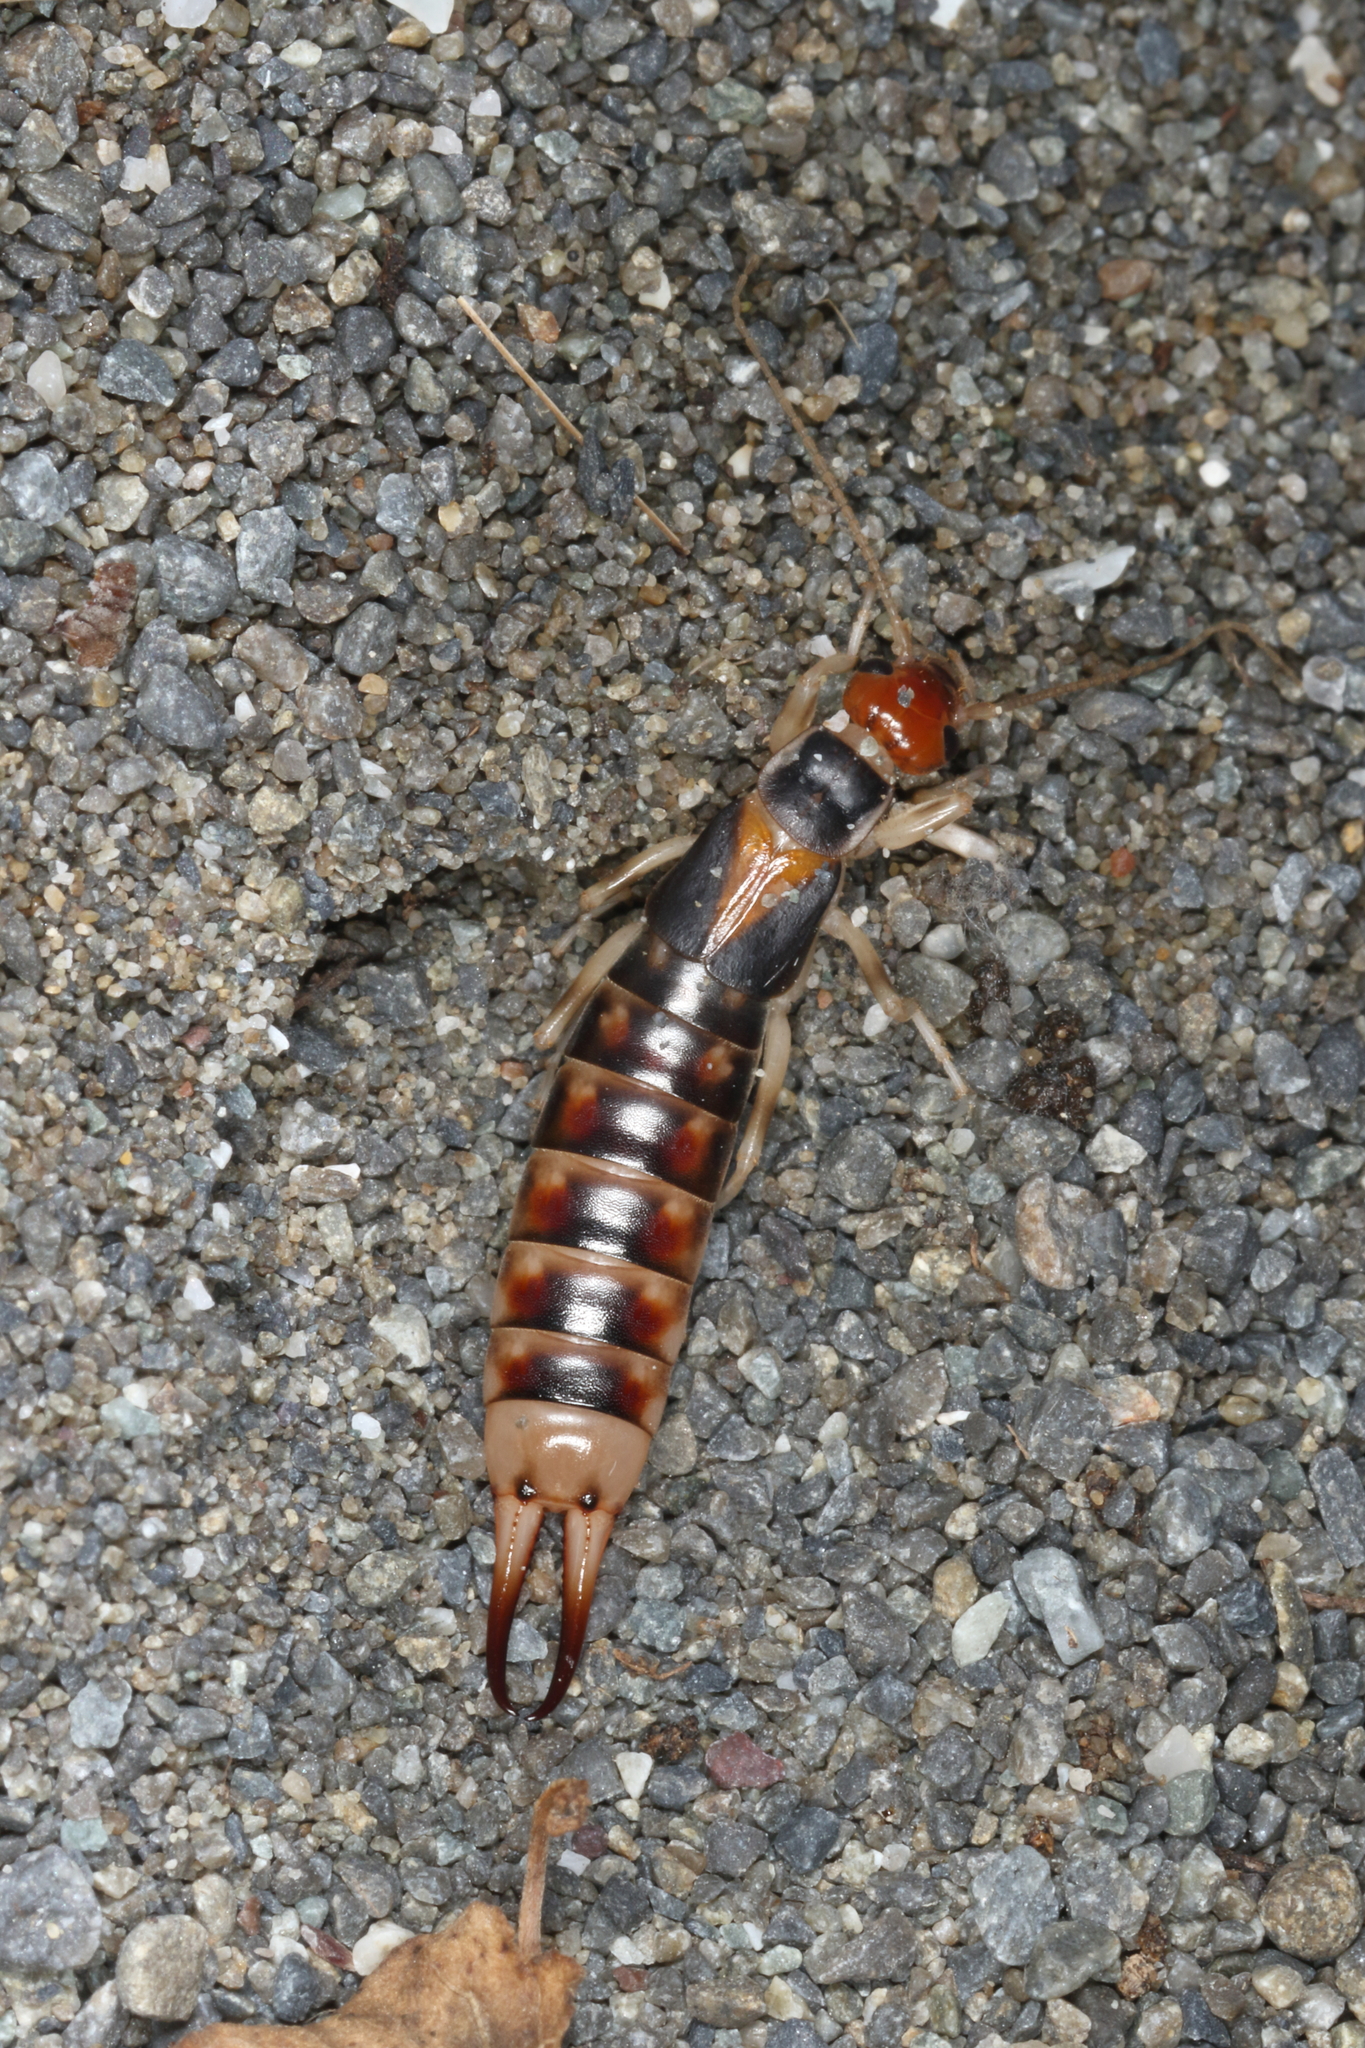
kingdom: Animalia
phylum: Arthropoda
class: Insecta
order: Dermaptera
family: Labiduridae
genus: Labidura
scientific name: Labidura riparia
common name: Striped earwig
